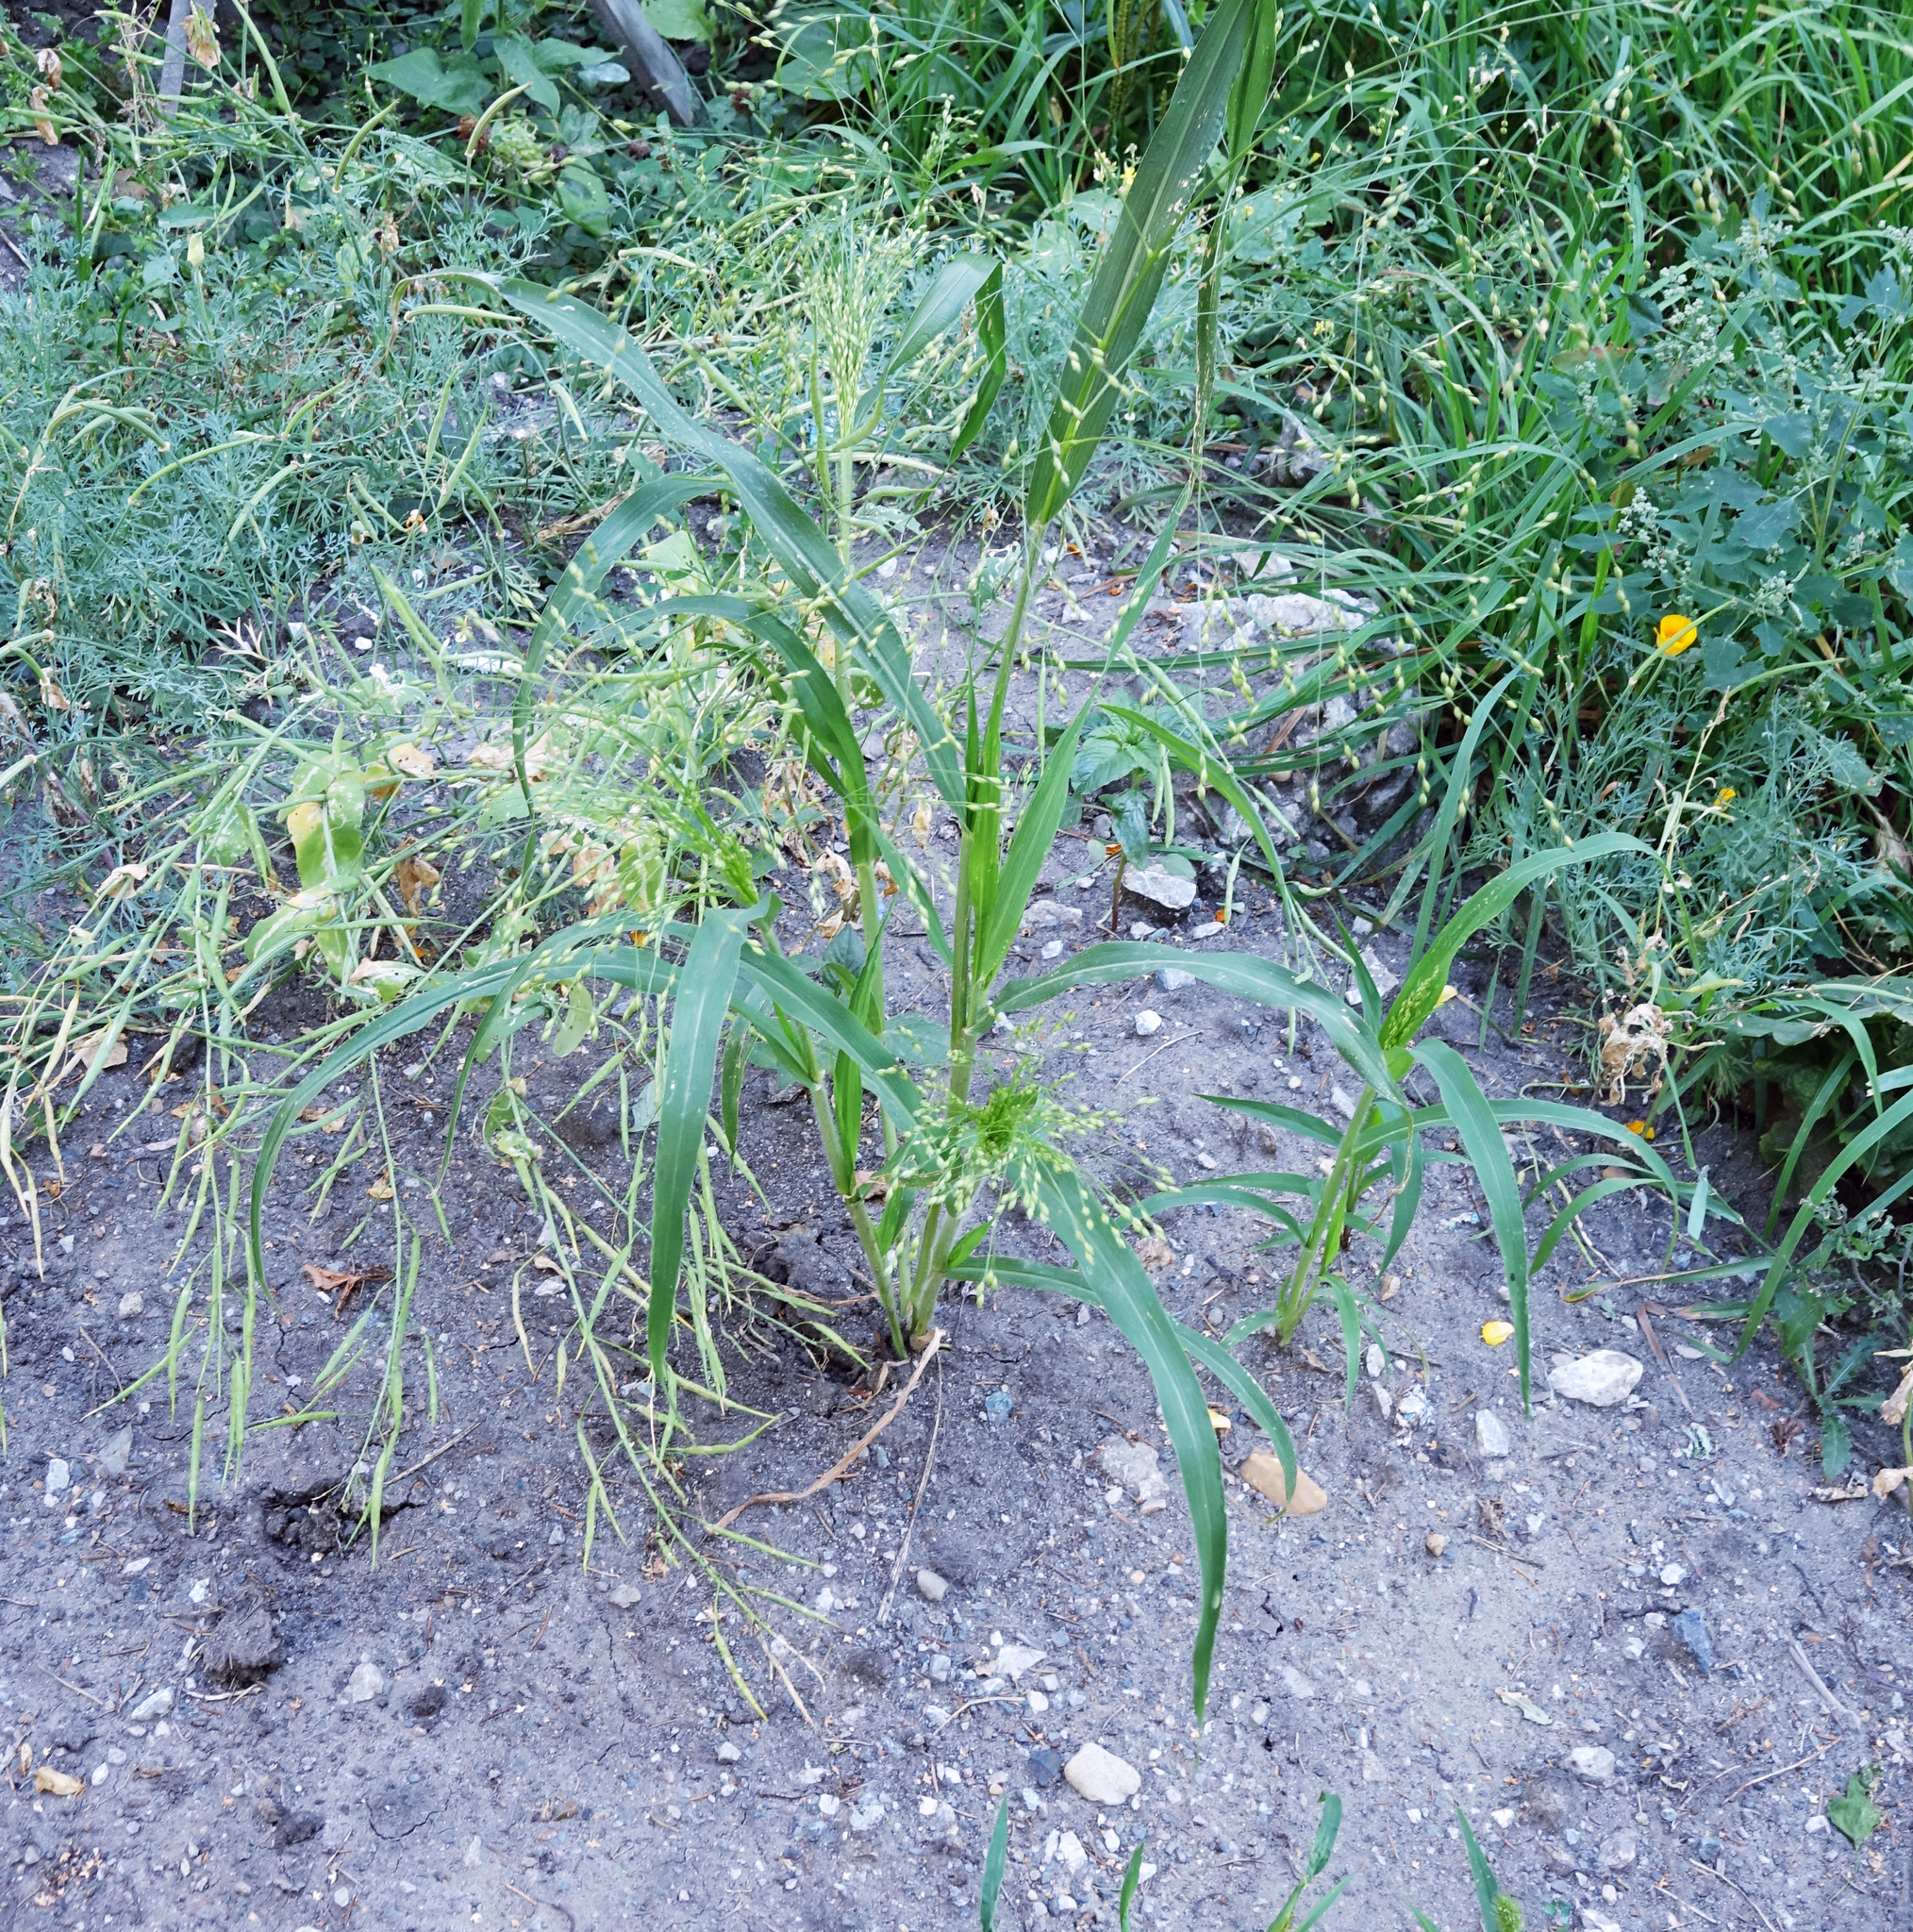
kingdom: Plantae
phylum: Tracheophyta
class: Liliopsida
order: Poales
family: Poaceae
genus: Panicum
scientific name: Panicum miliaceum
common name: Common millet
